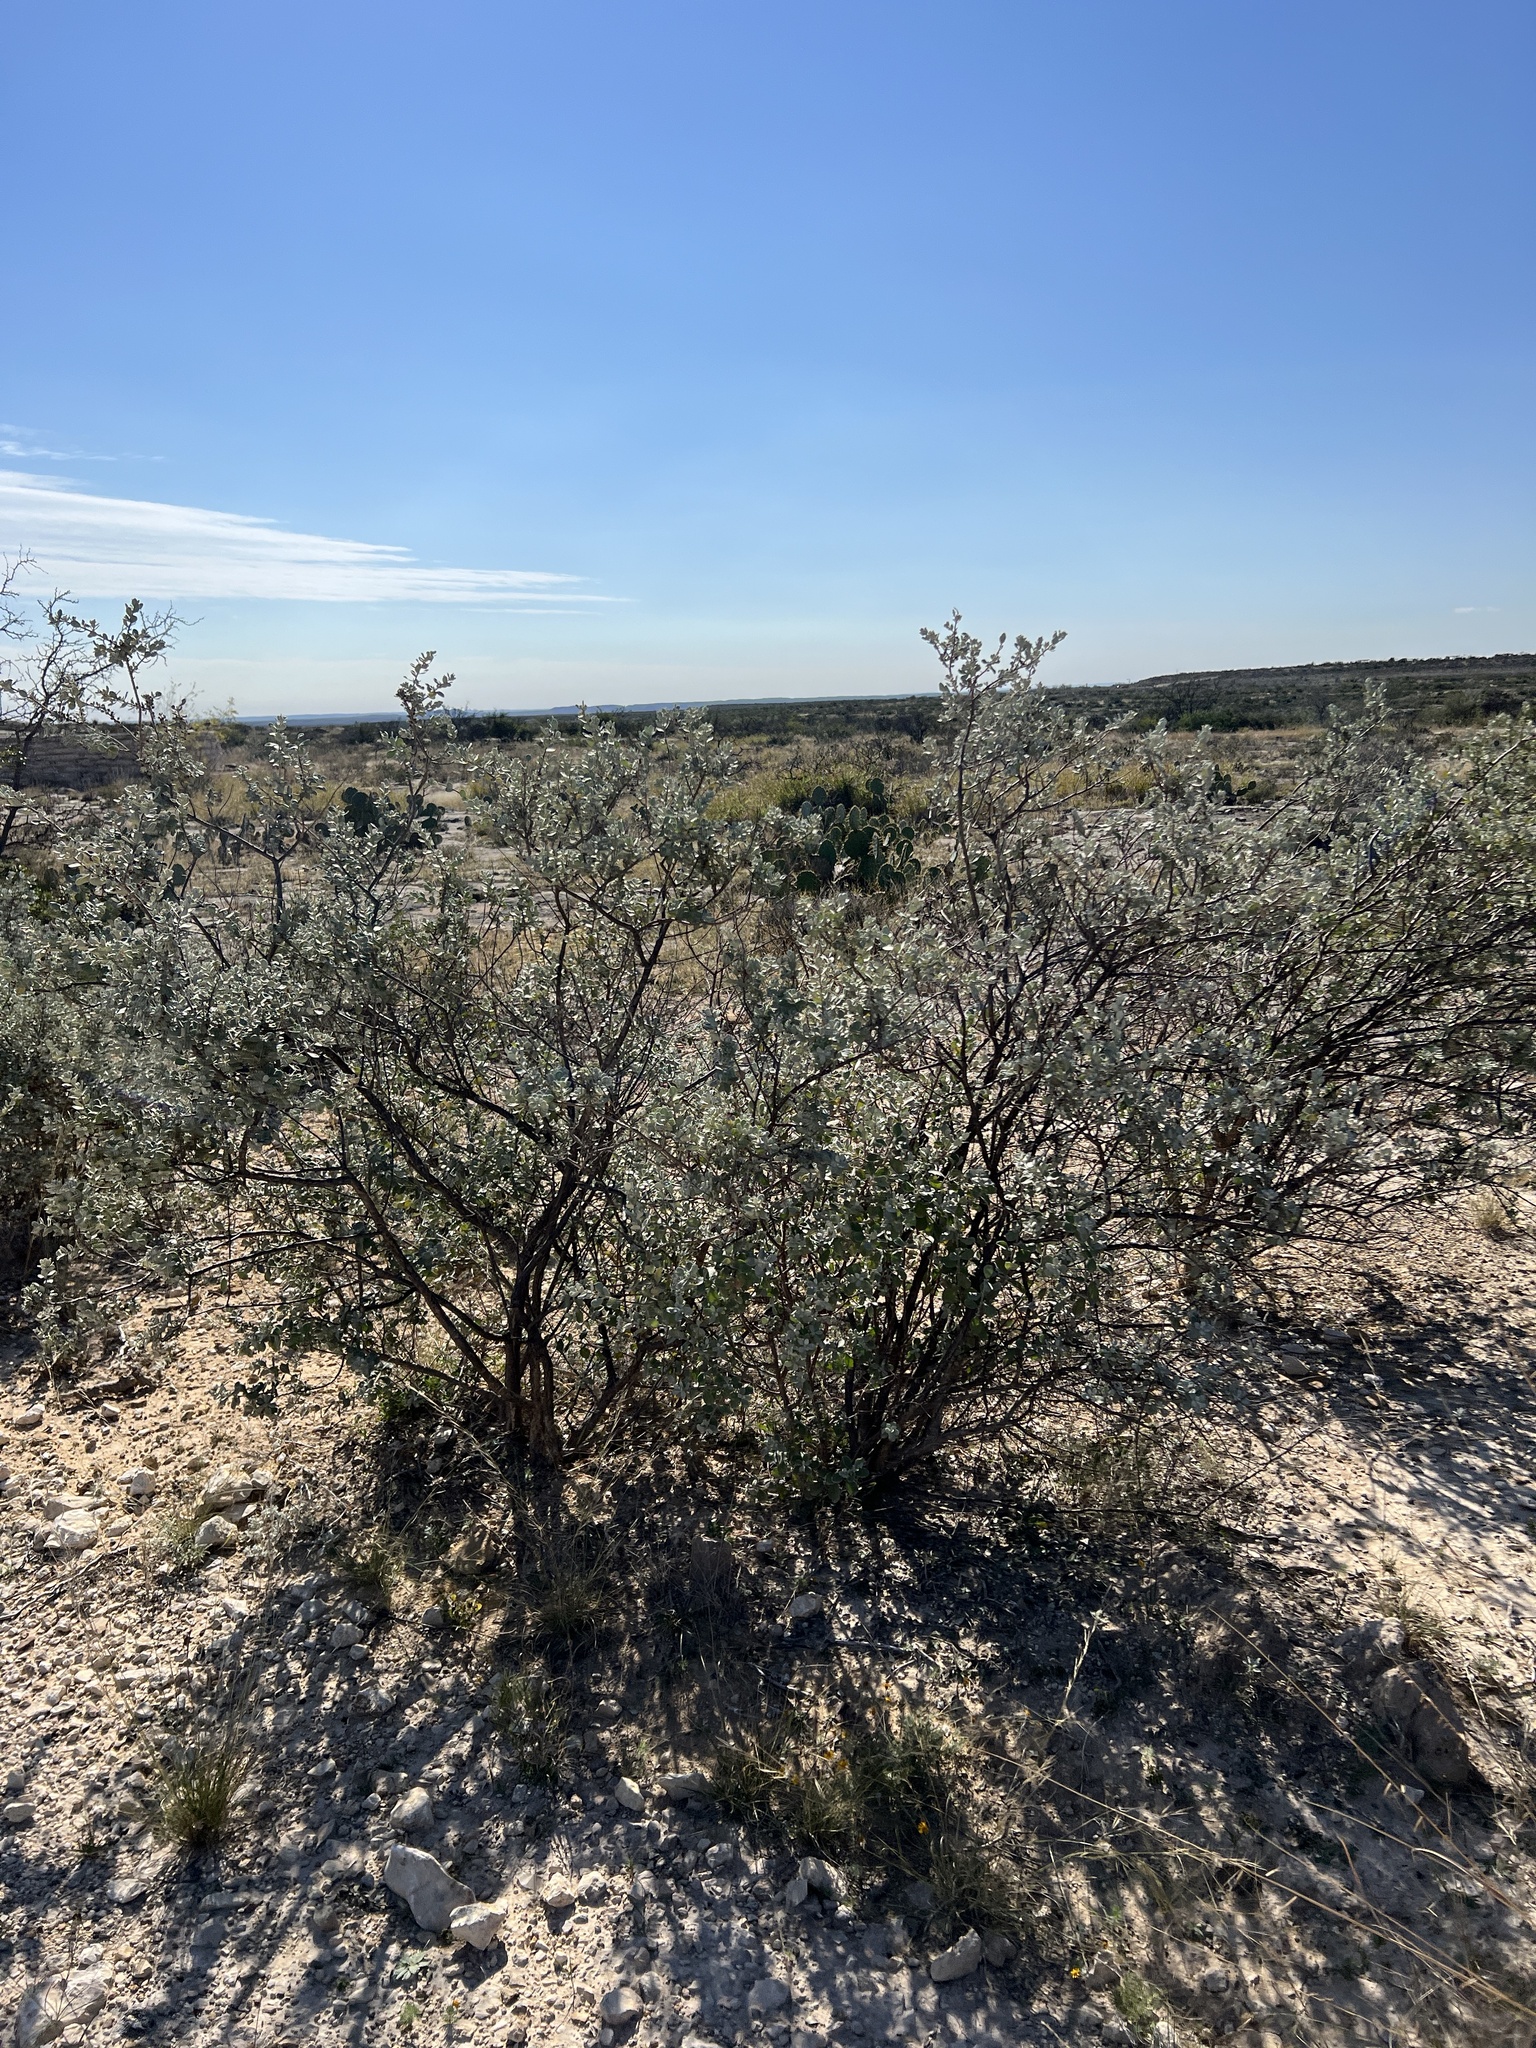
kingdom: Plantae
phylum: Tracheophyta
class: Magnoliopsida
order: Lamiales
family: Scrophulariaceae
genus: Leucophyllum
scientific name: Leucophyllum frutescens
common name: Texas silverleaf
